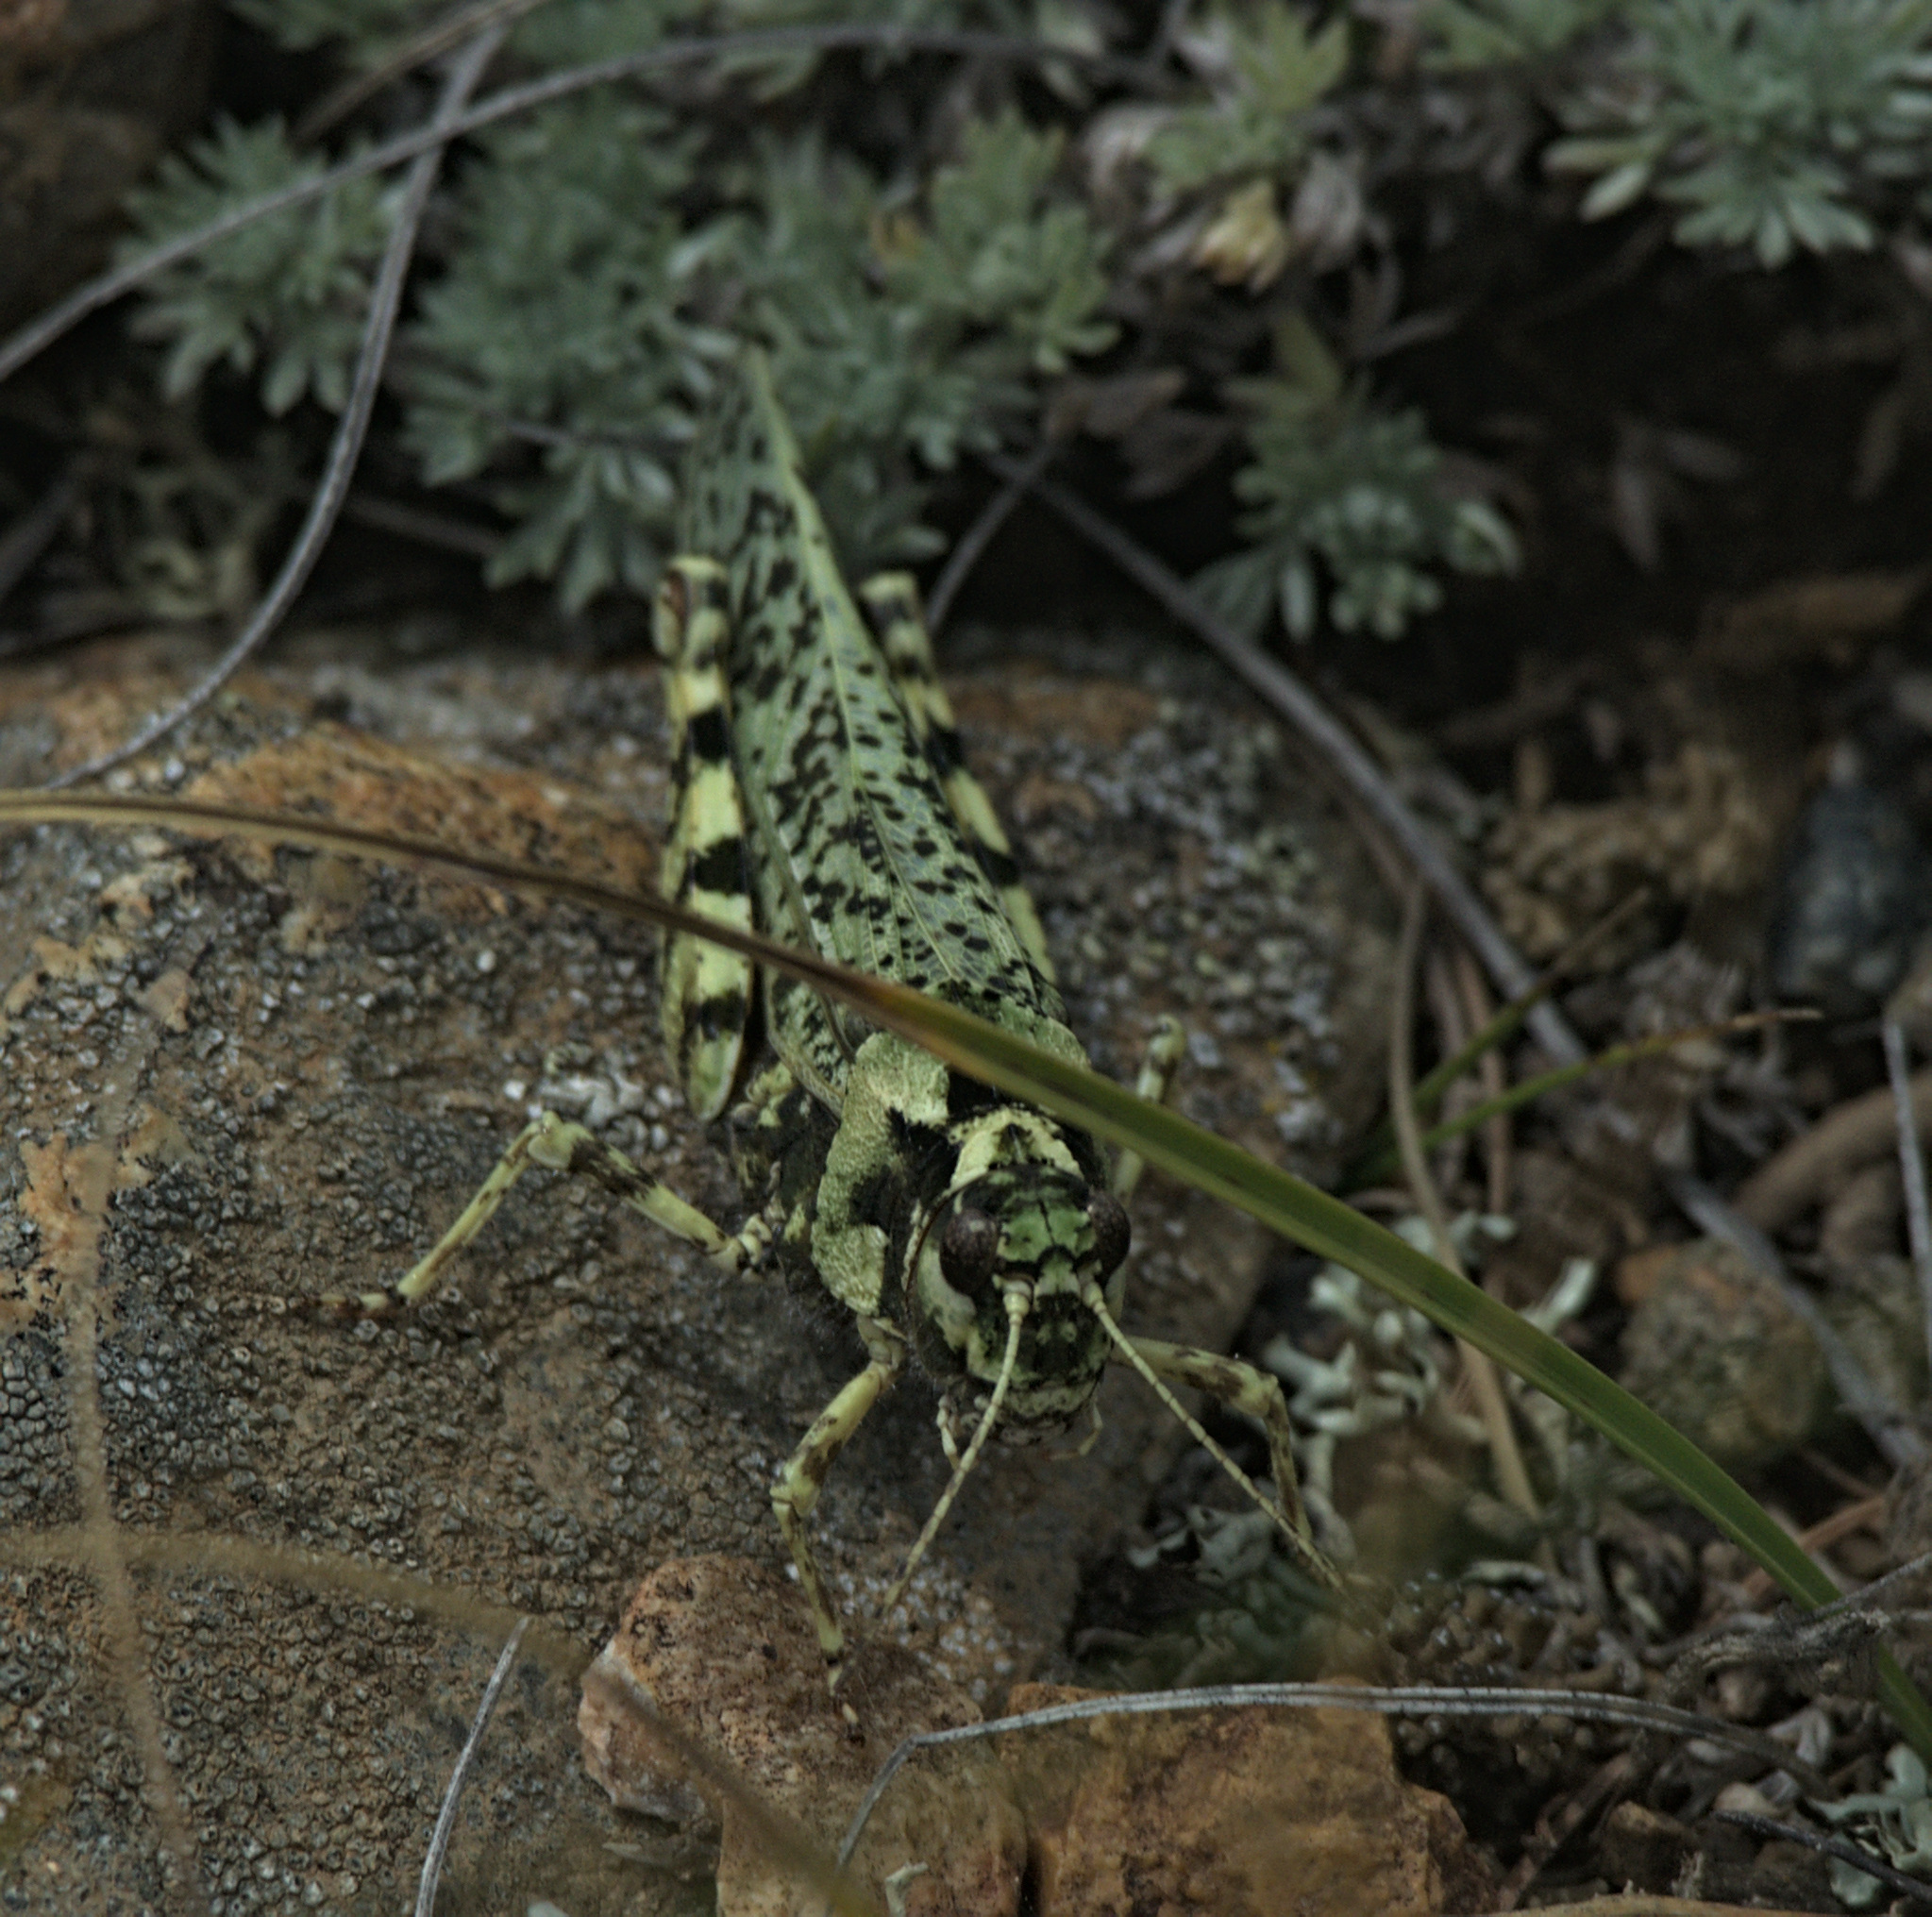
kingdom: Animalia
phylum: Arthropoda
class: Insecta
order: Orthoptera
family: Acrididae
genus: Angaracris
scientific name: Angaracris barabensis
